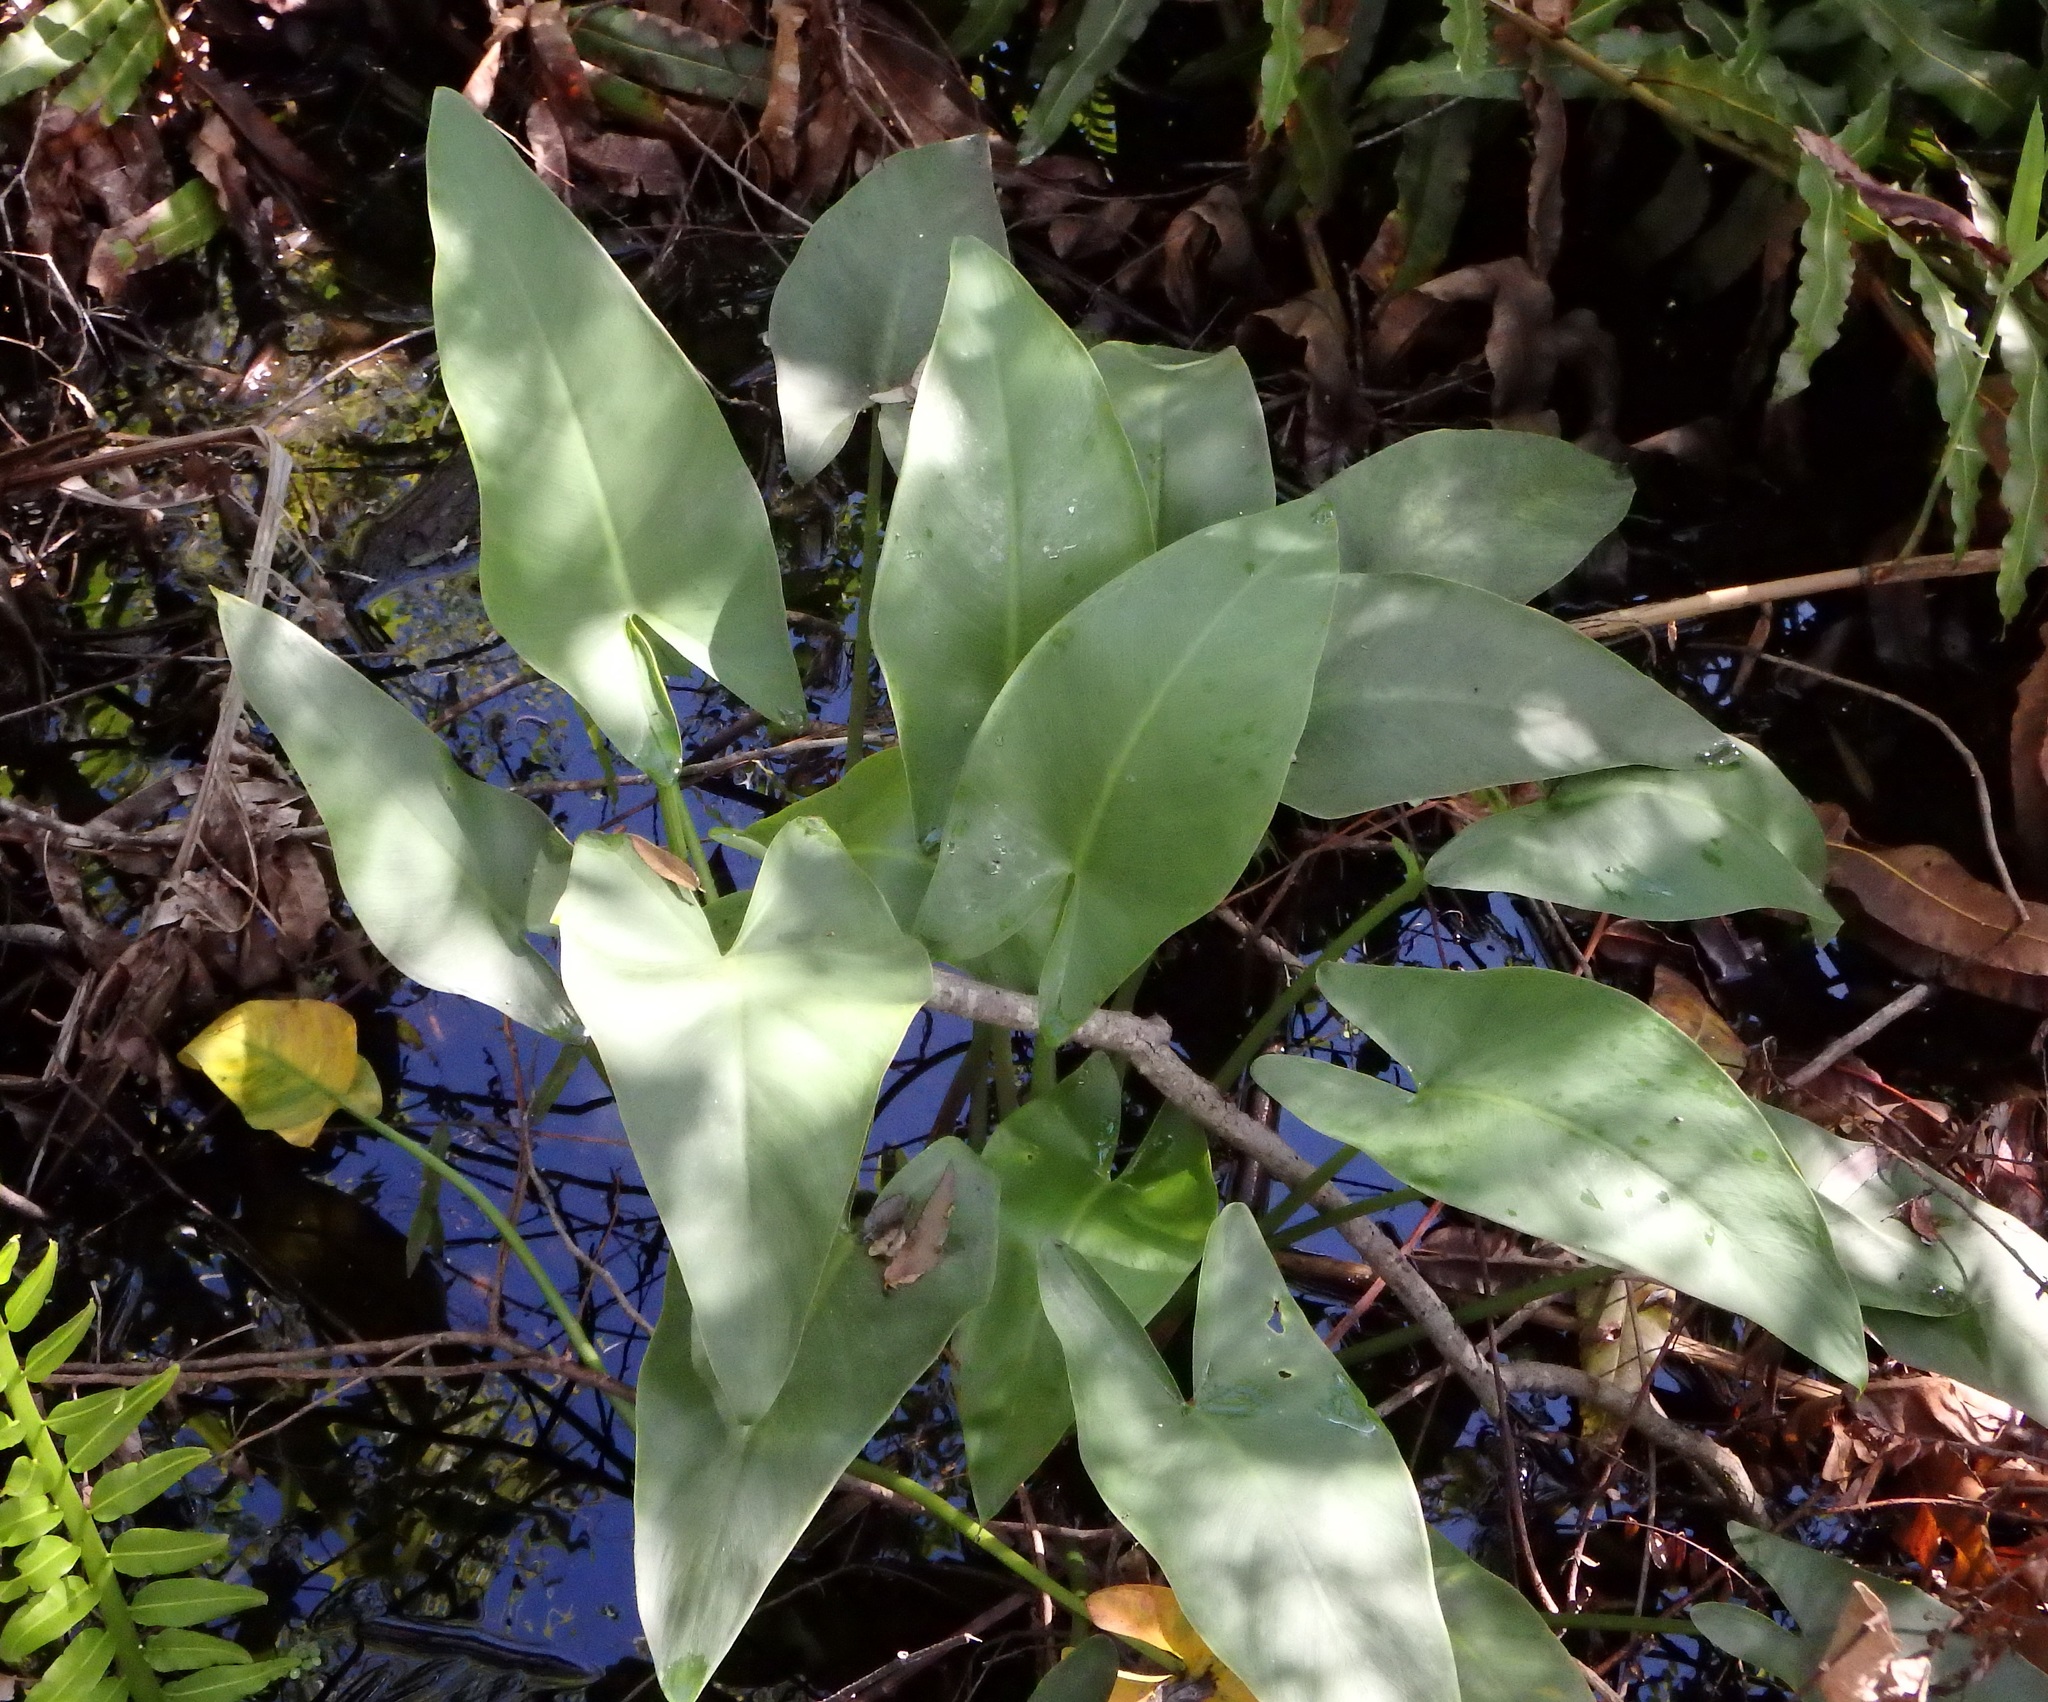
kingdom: Plantae
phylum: Tracheophyta
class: Liliopsida
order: Alismatales
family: Araceae
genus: Peltandra
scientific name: Peltandra virginica
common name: Arrow arum
